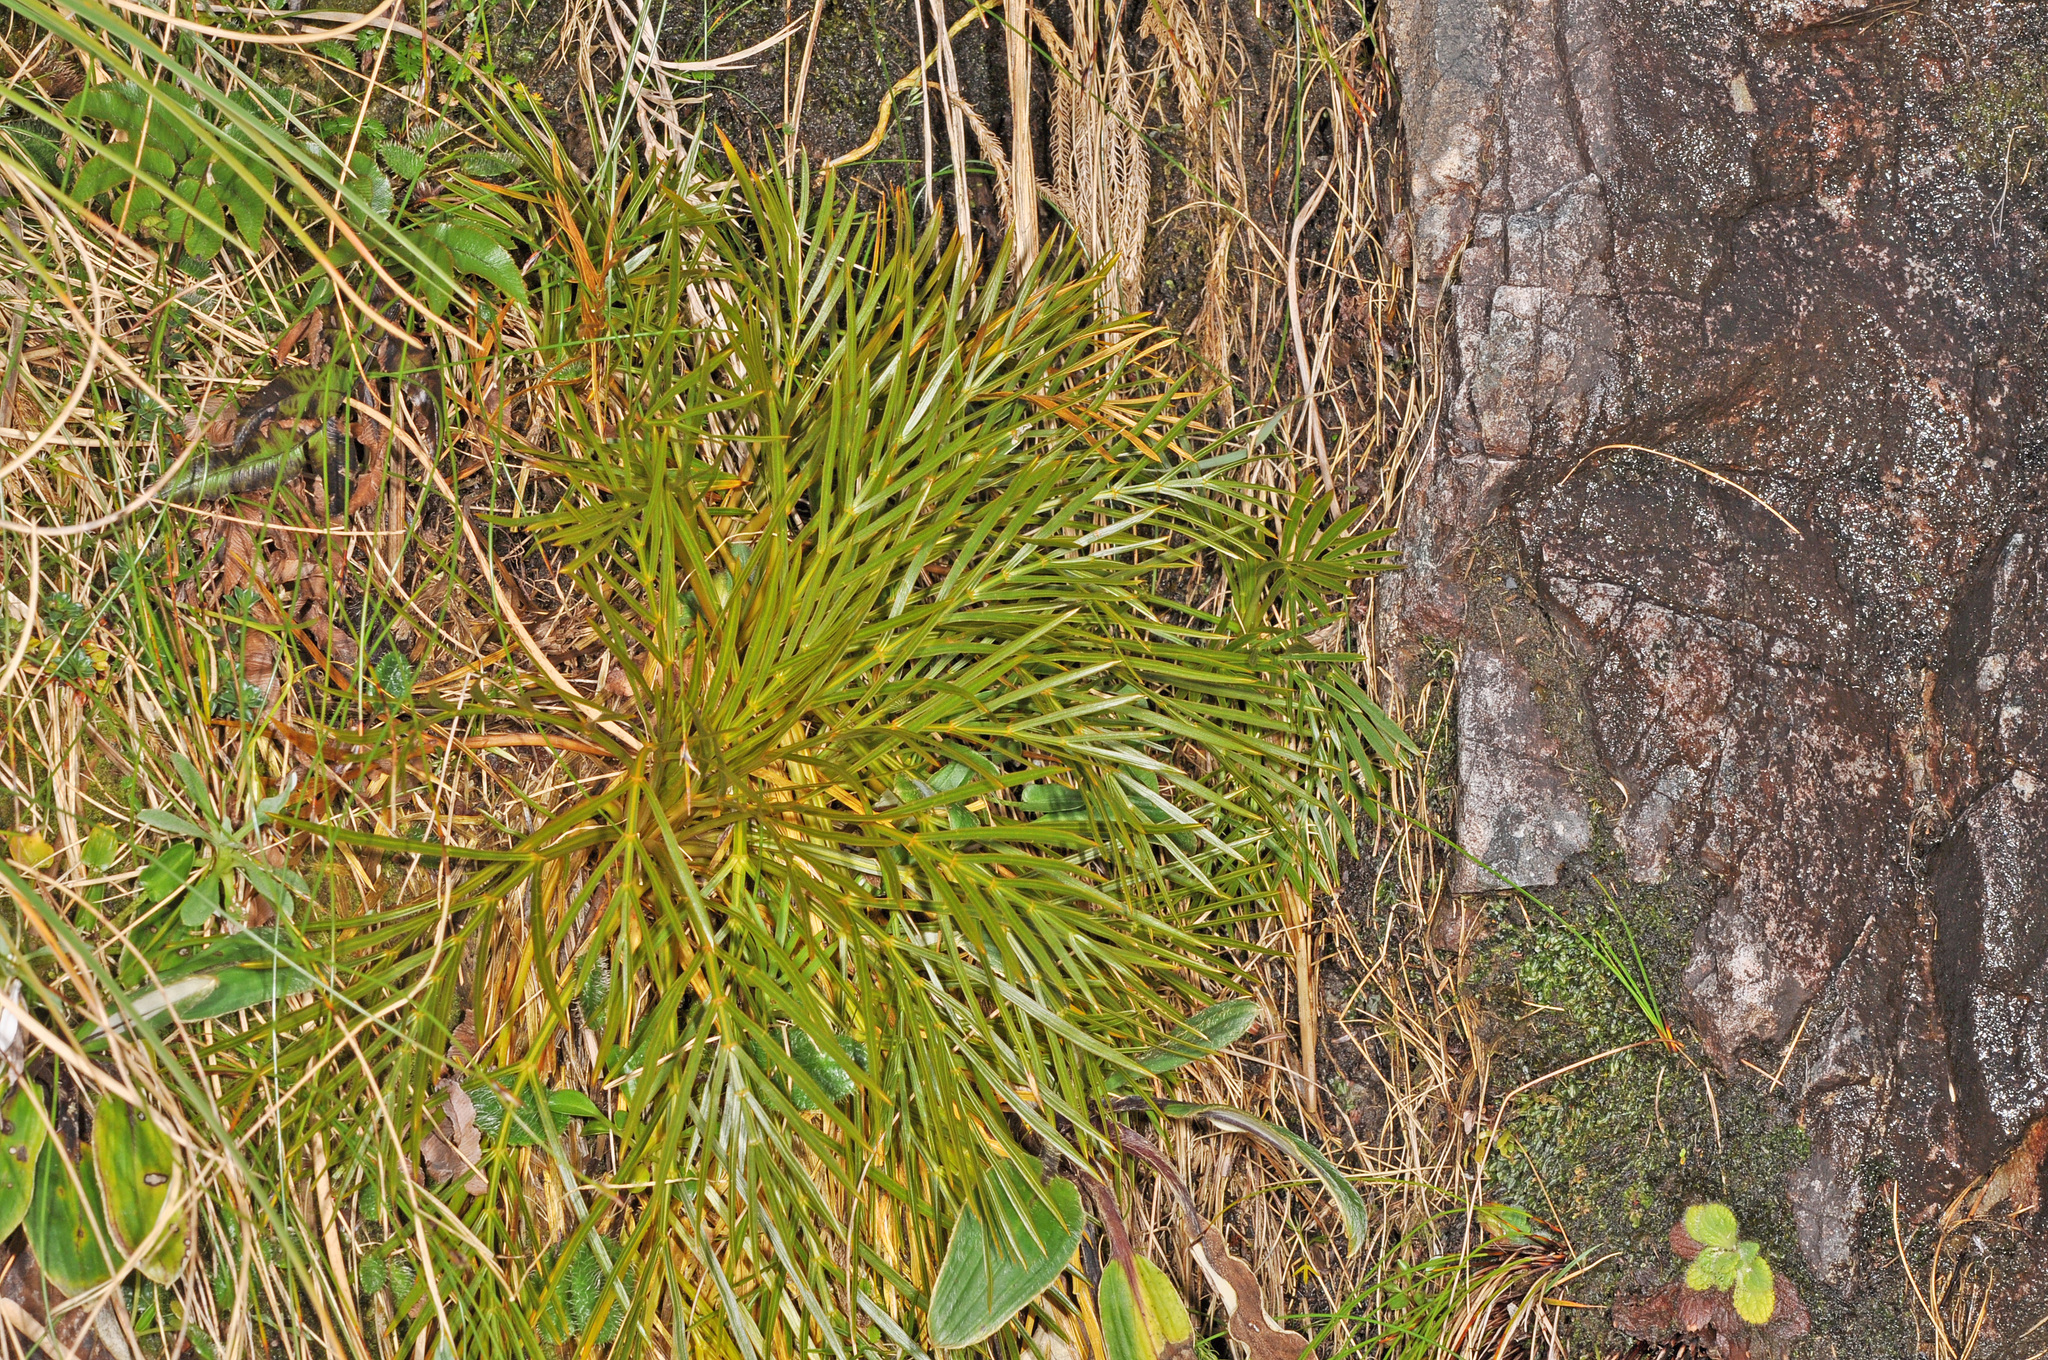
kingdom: Plantae
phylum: Tracheophyta
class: Magnoliopsida
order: Apiales
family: Apiaceae
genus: Aciphylla
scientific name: Aciphylla similis
